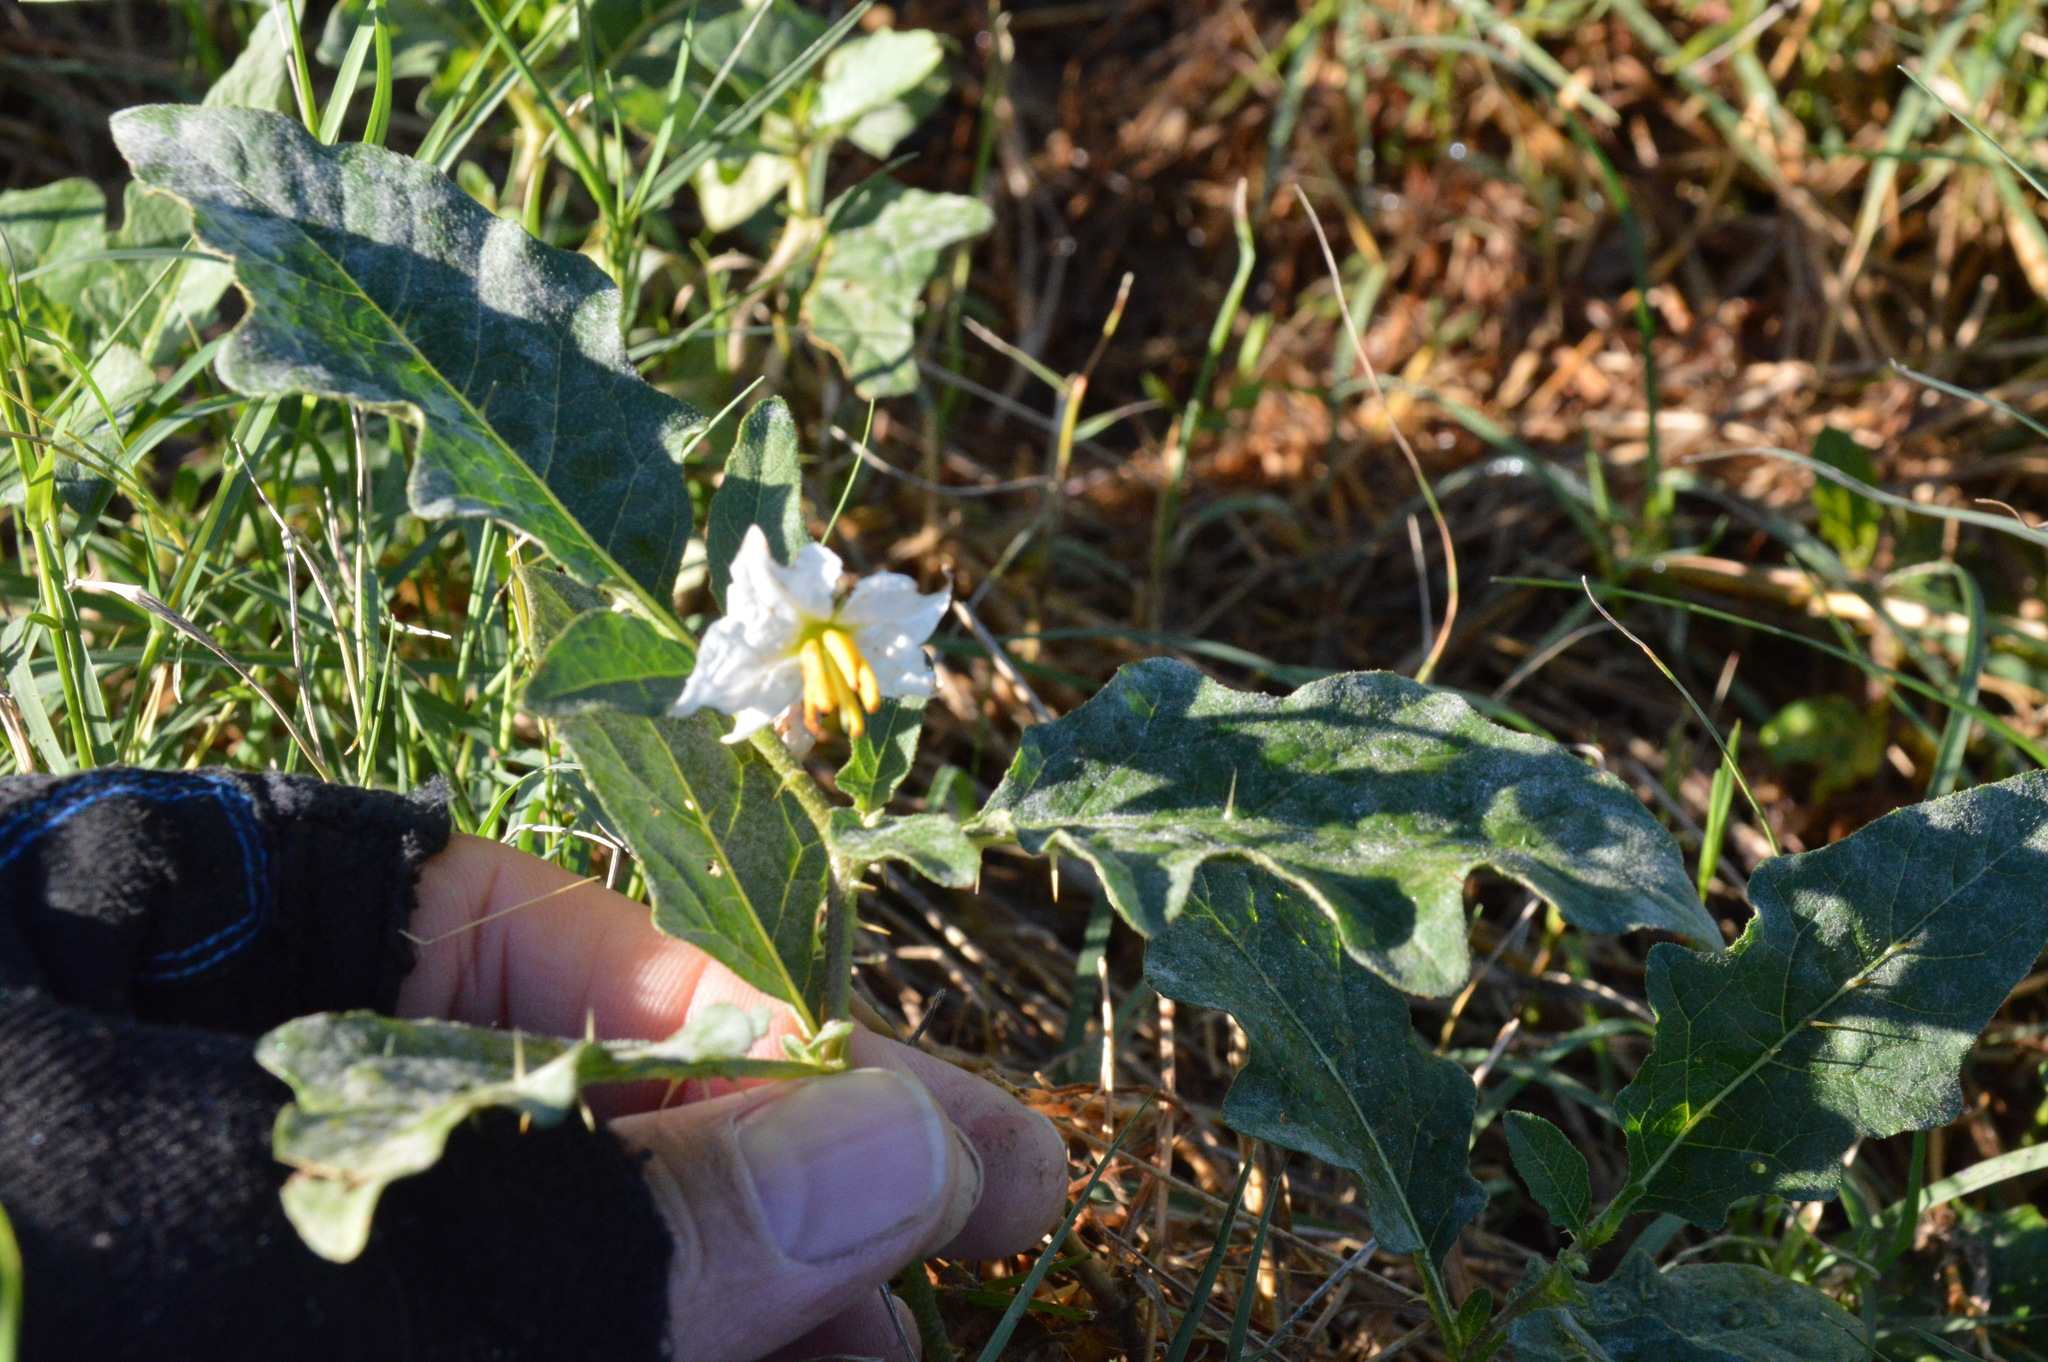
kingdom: Plantae
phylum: Tracheophyta
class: Magnoliopsida
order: Solanales
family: Solanaceae
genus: Solanum
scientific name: Solanum carolinense
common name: Horse-nettle
